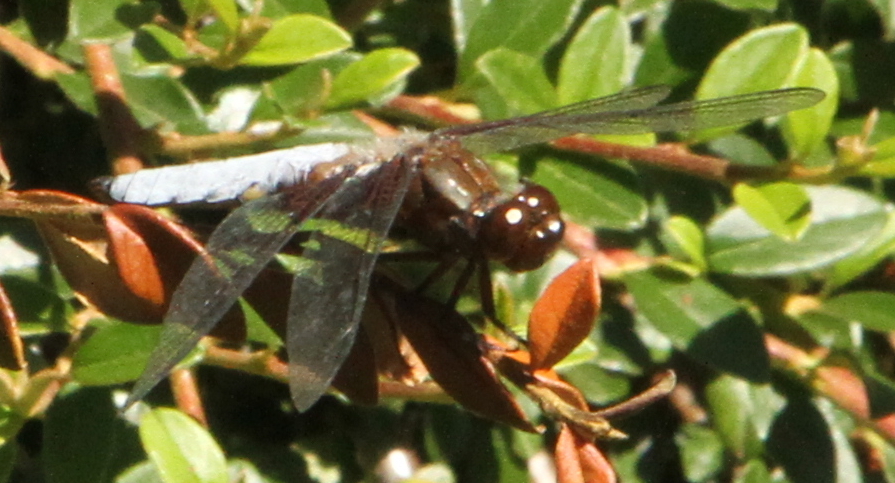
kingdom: Animalia
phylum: Arthropoda
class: Insecta
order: Odonata
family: Libellulidae
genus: Libellula
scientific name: Libellula depressa
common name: Broad-bodied chaser
